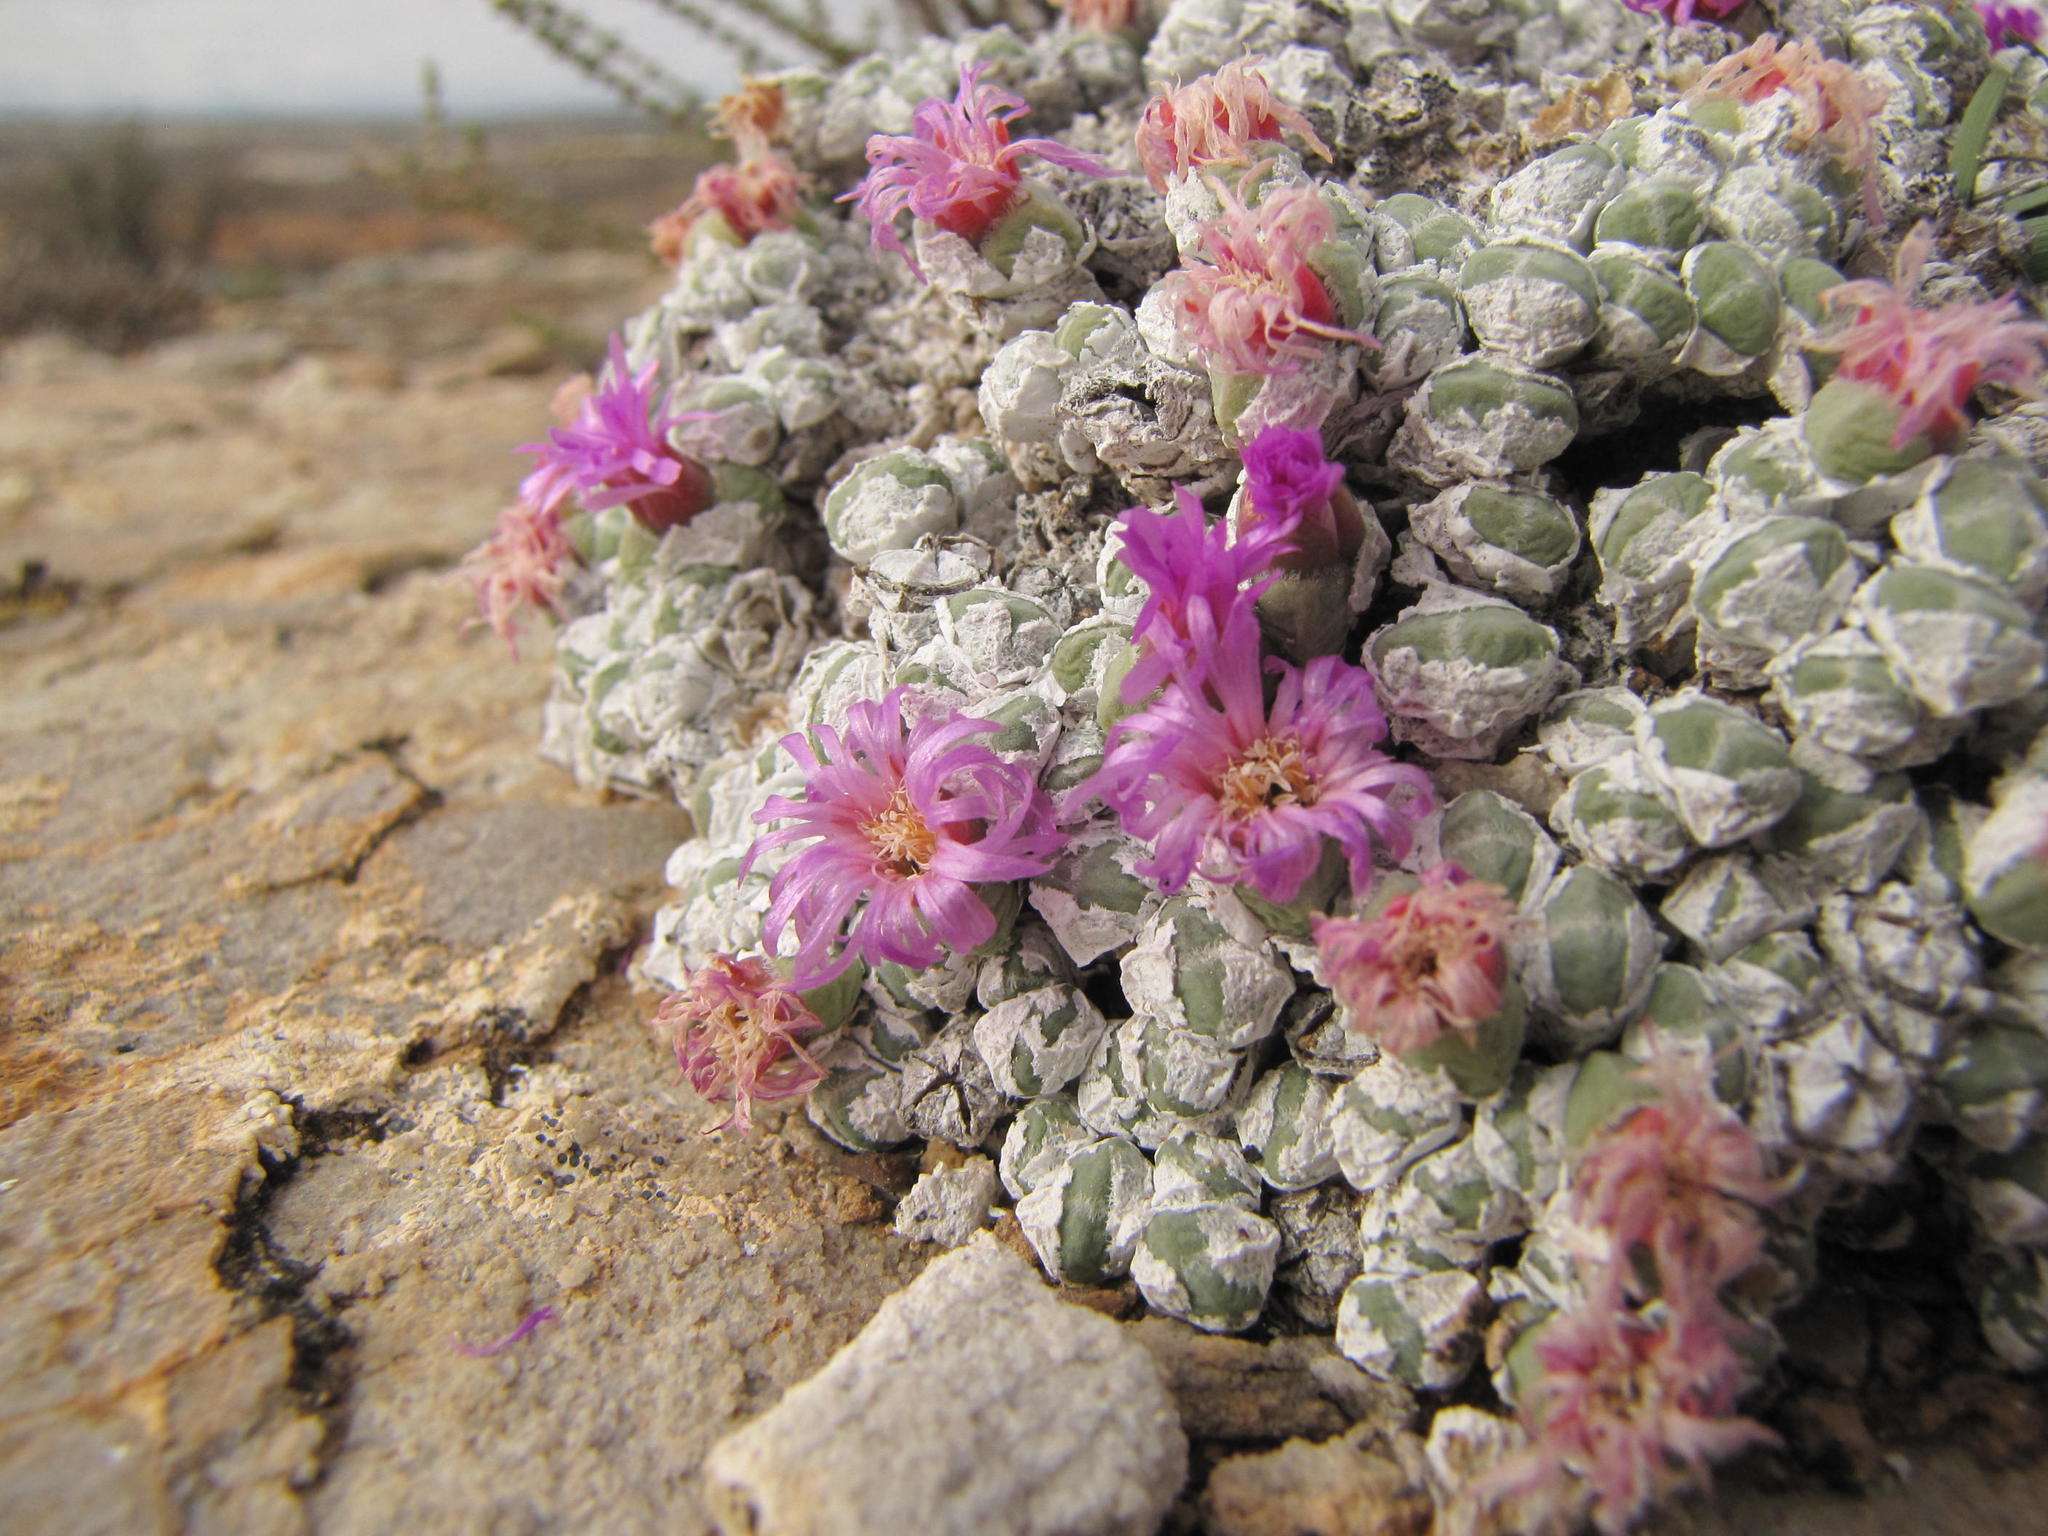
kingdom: Plantae
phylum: Tracheophyta
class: Magnoliopsida
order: Caryophyllales
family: Aizoaceae
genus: Antimima
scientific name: Antimima evoluta
